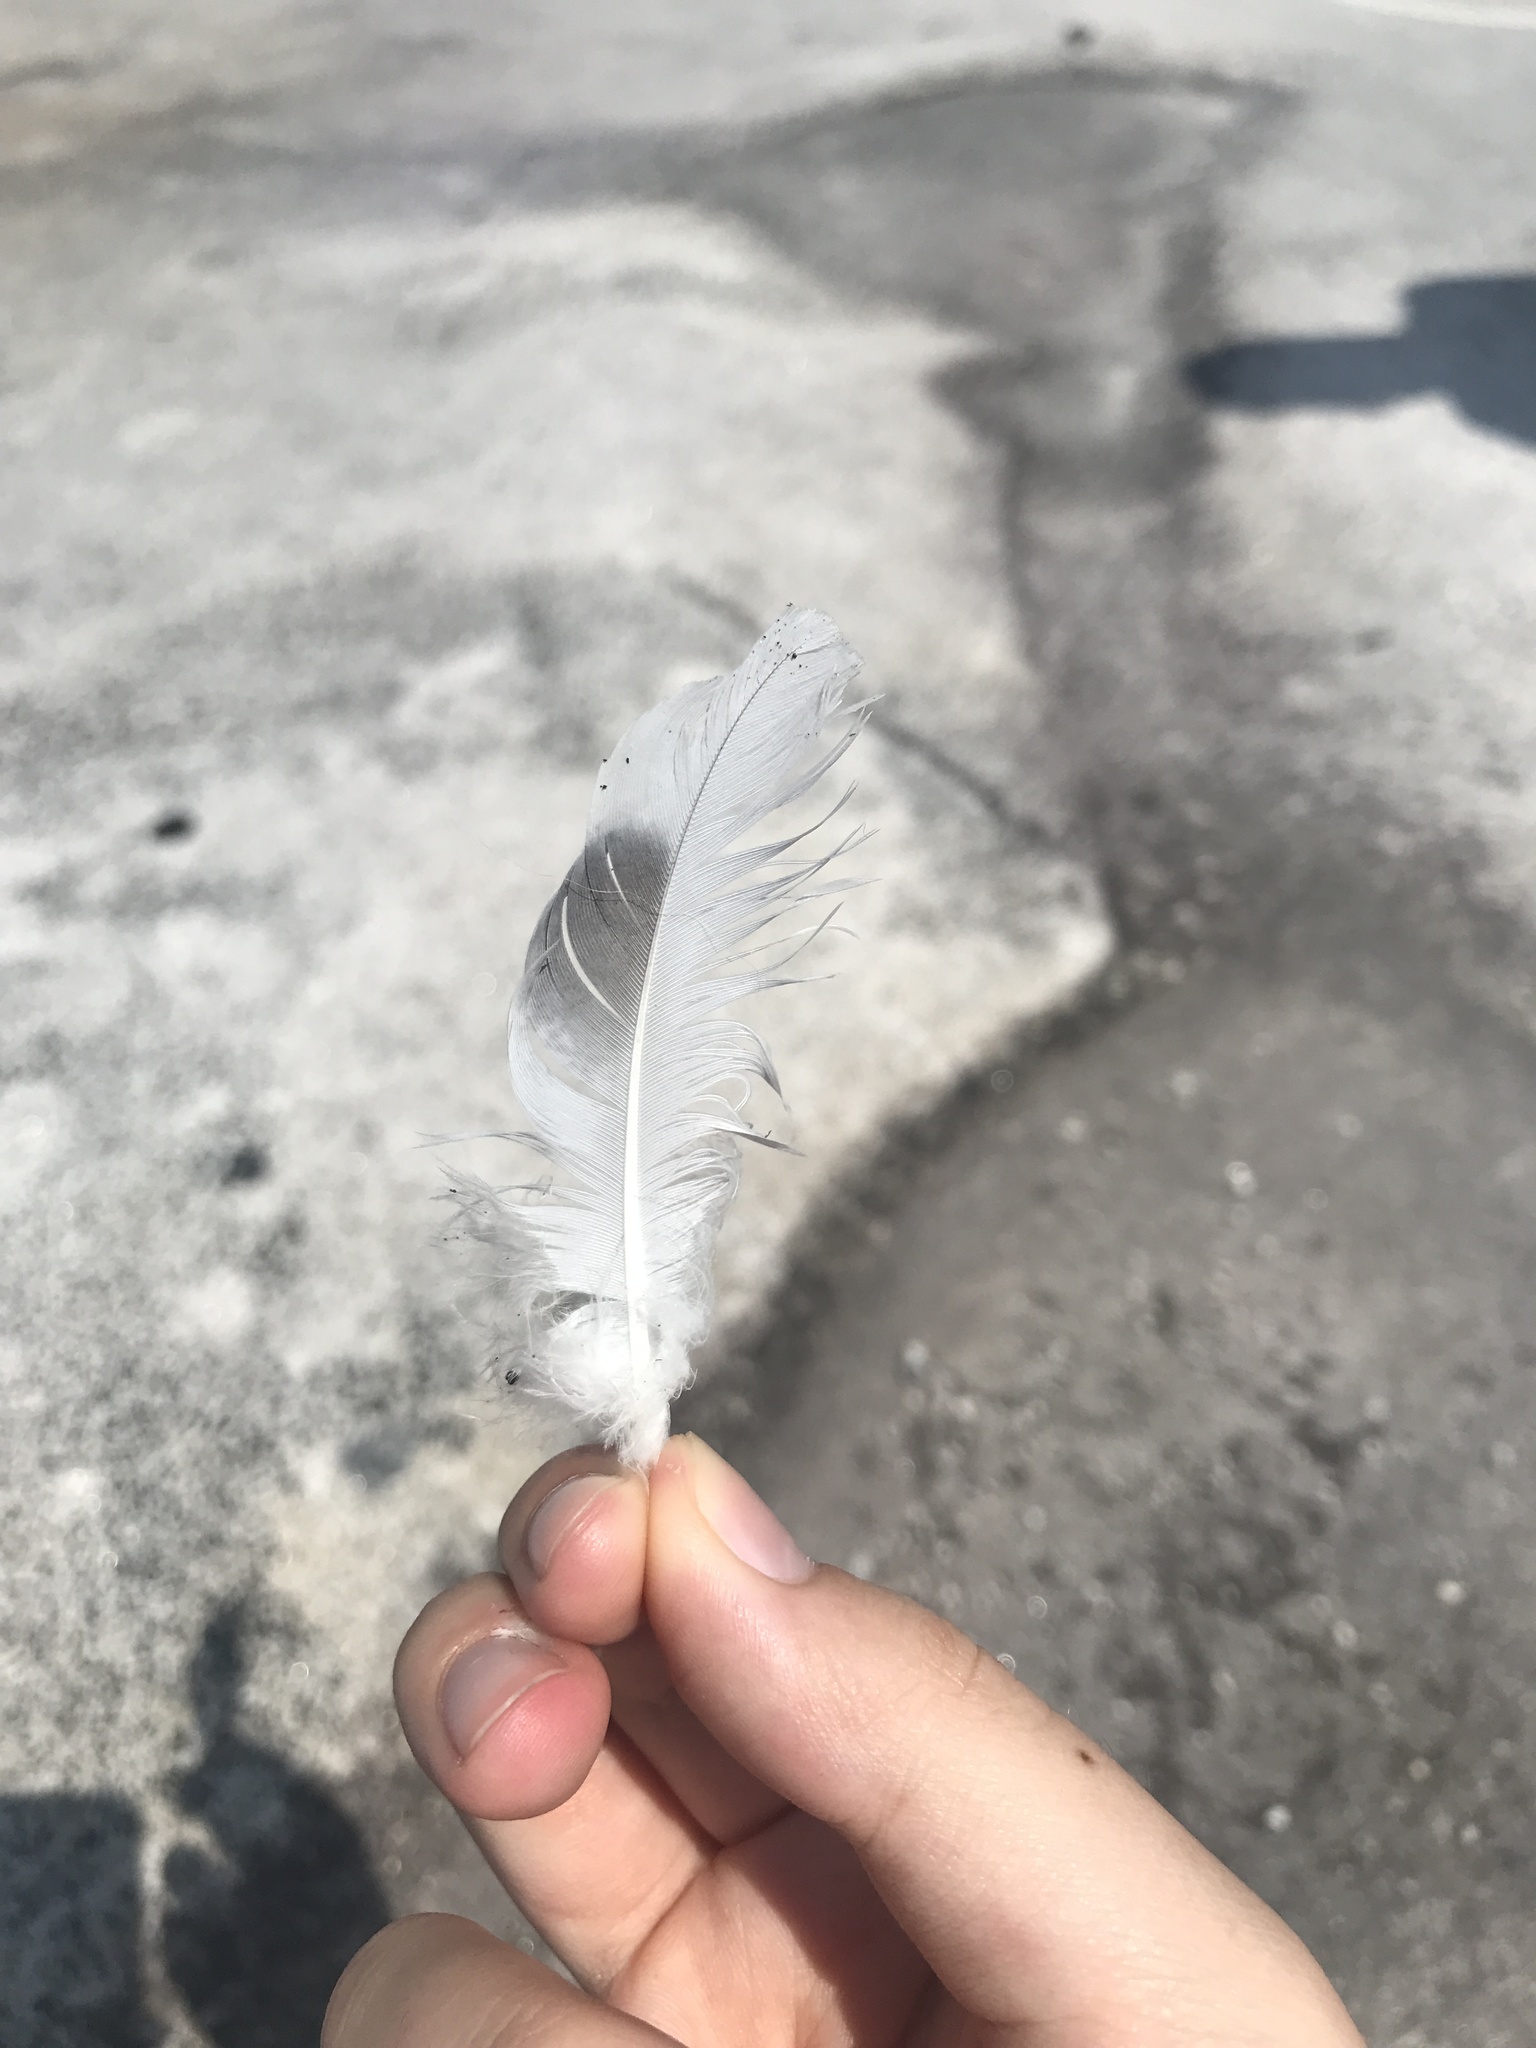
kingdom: Animalia
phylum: Chordata
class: Aves
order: Columbiformes
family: Columbidae
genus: Columba
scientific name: Columba livia
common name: Rock pigeon
